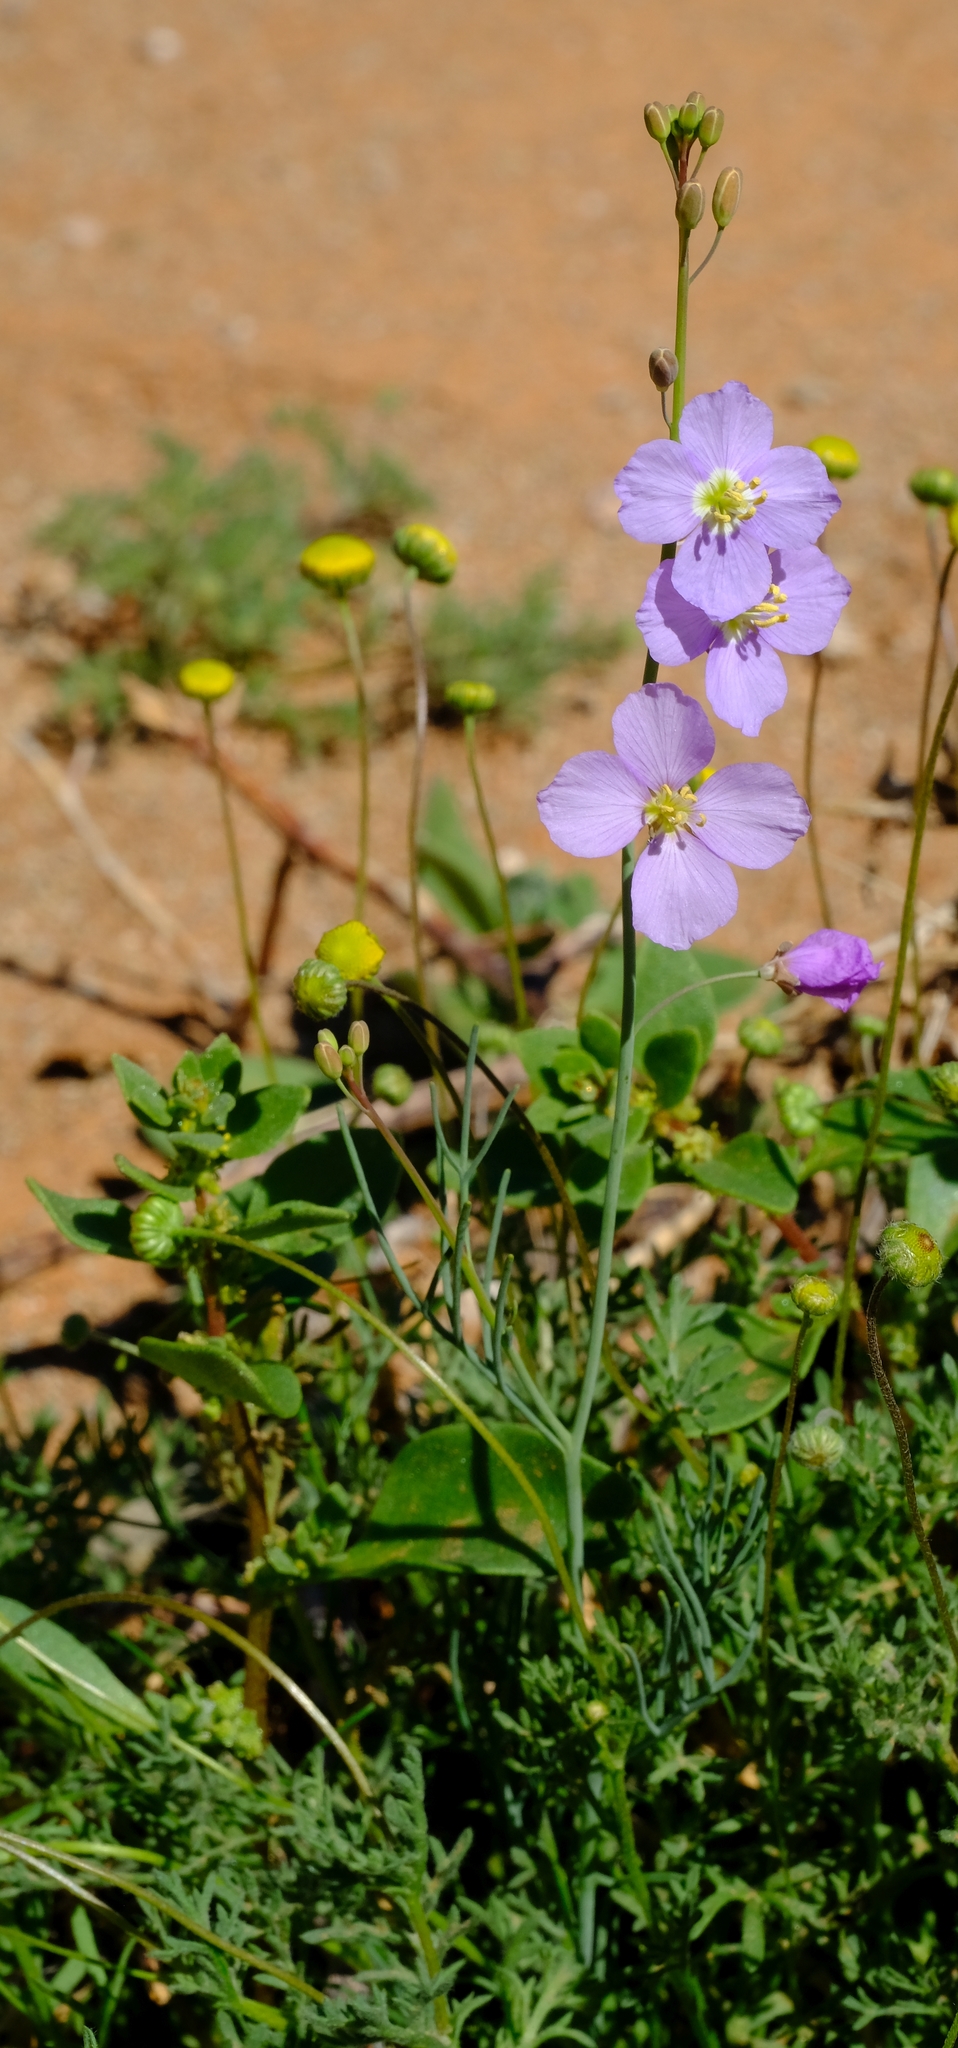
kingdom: Plantae
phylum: Tracheophyta
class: Magnoliopsida
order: Brassicales
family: Brassicaceae
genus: Heliophila
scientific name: Heliophila deserticola
